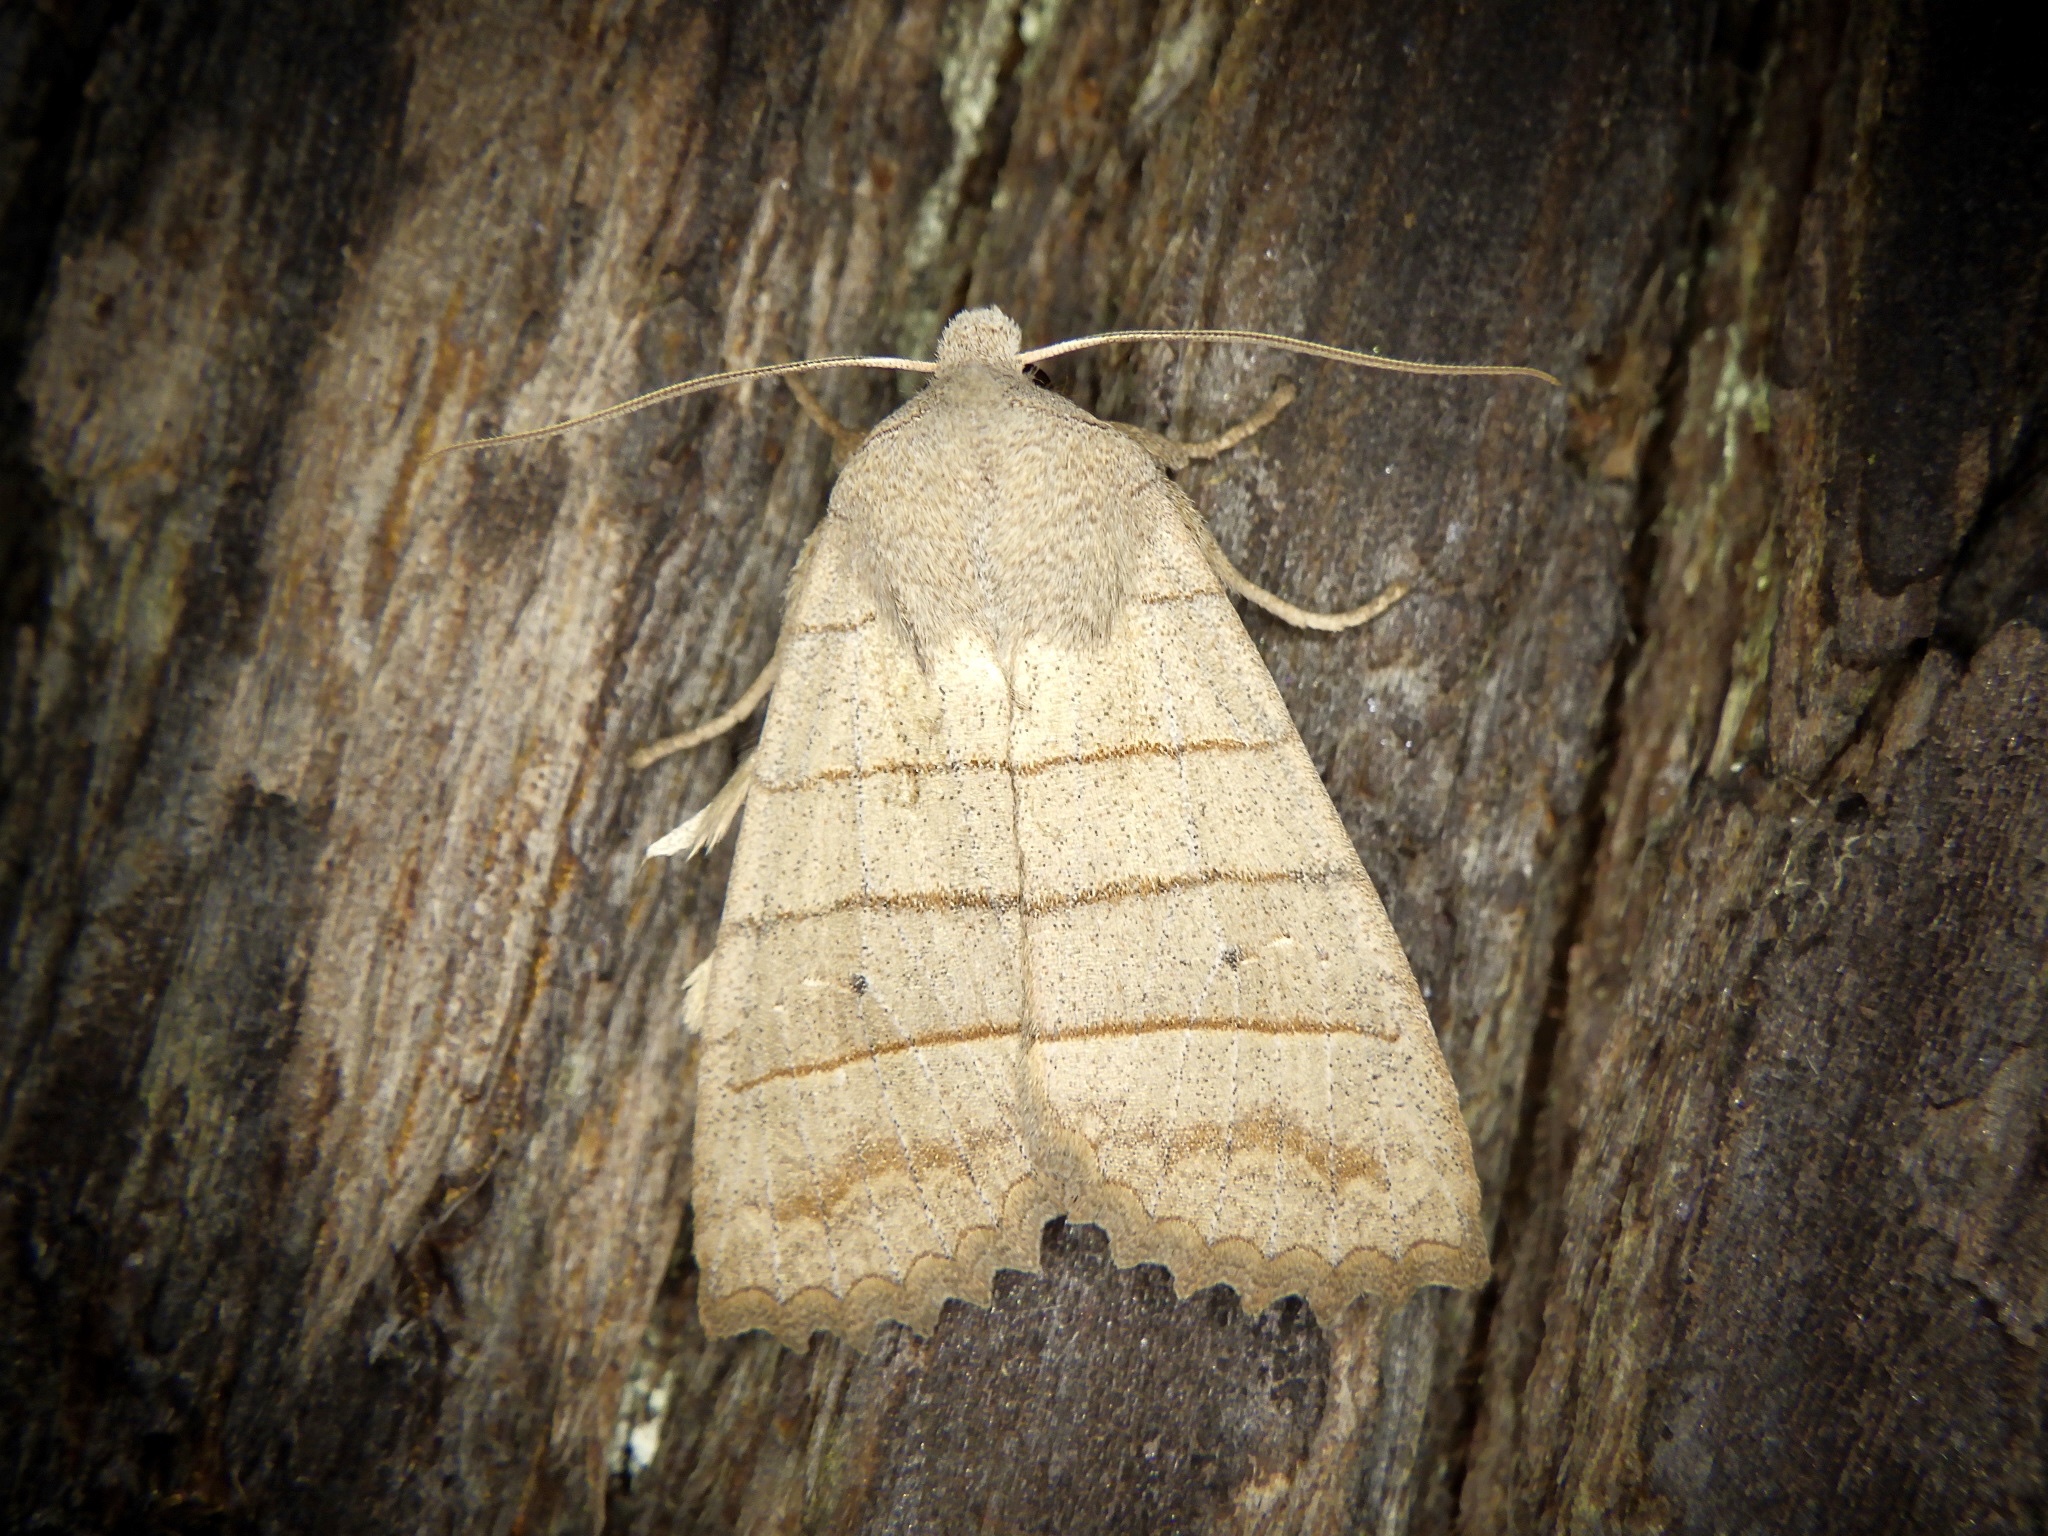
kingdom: Animalia
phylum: Arthropoda
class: Insecta
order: Lepidoptera
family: Noctuidae
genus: Eupsilia
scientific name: Eupsilia quadrilinea
